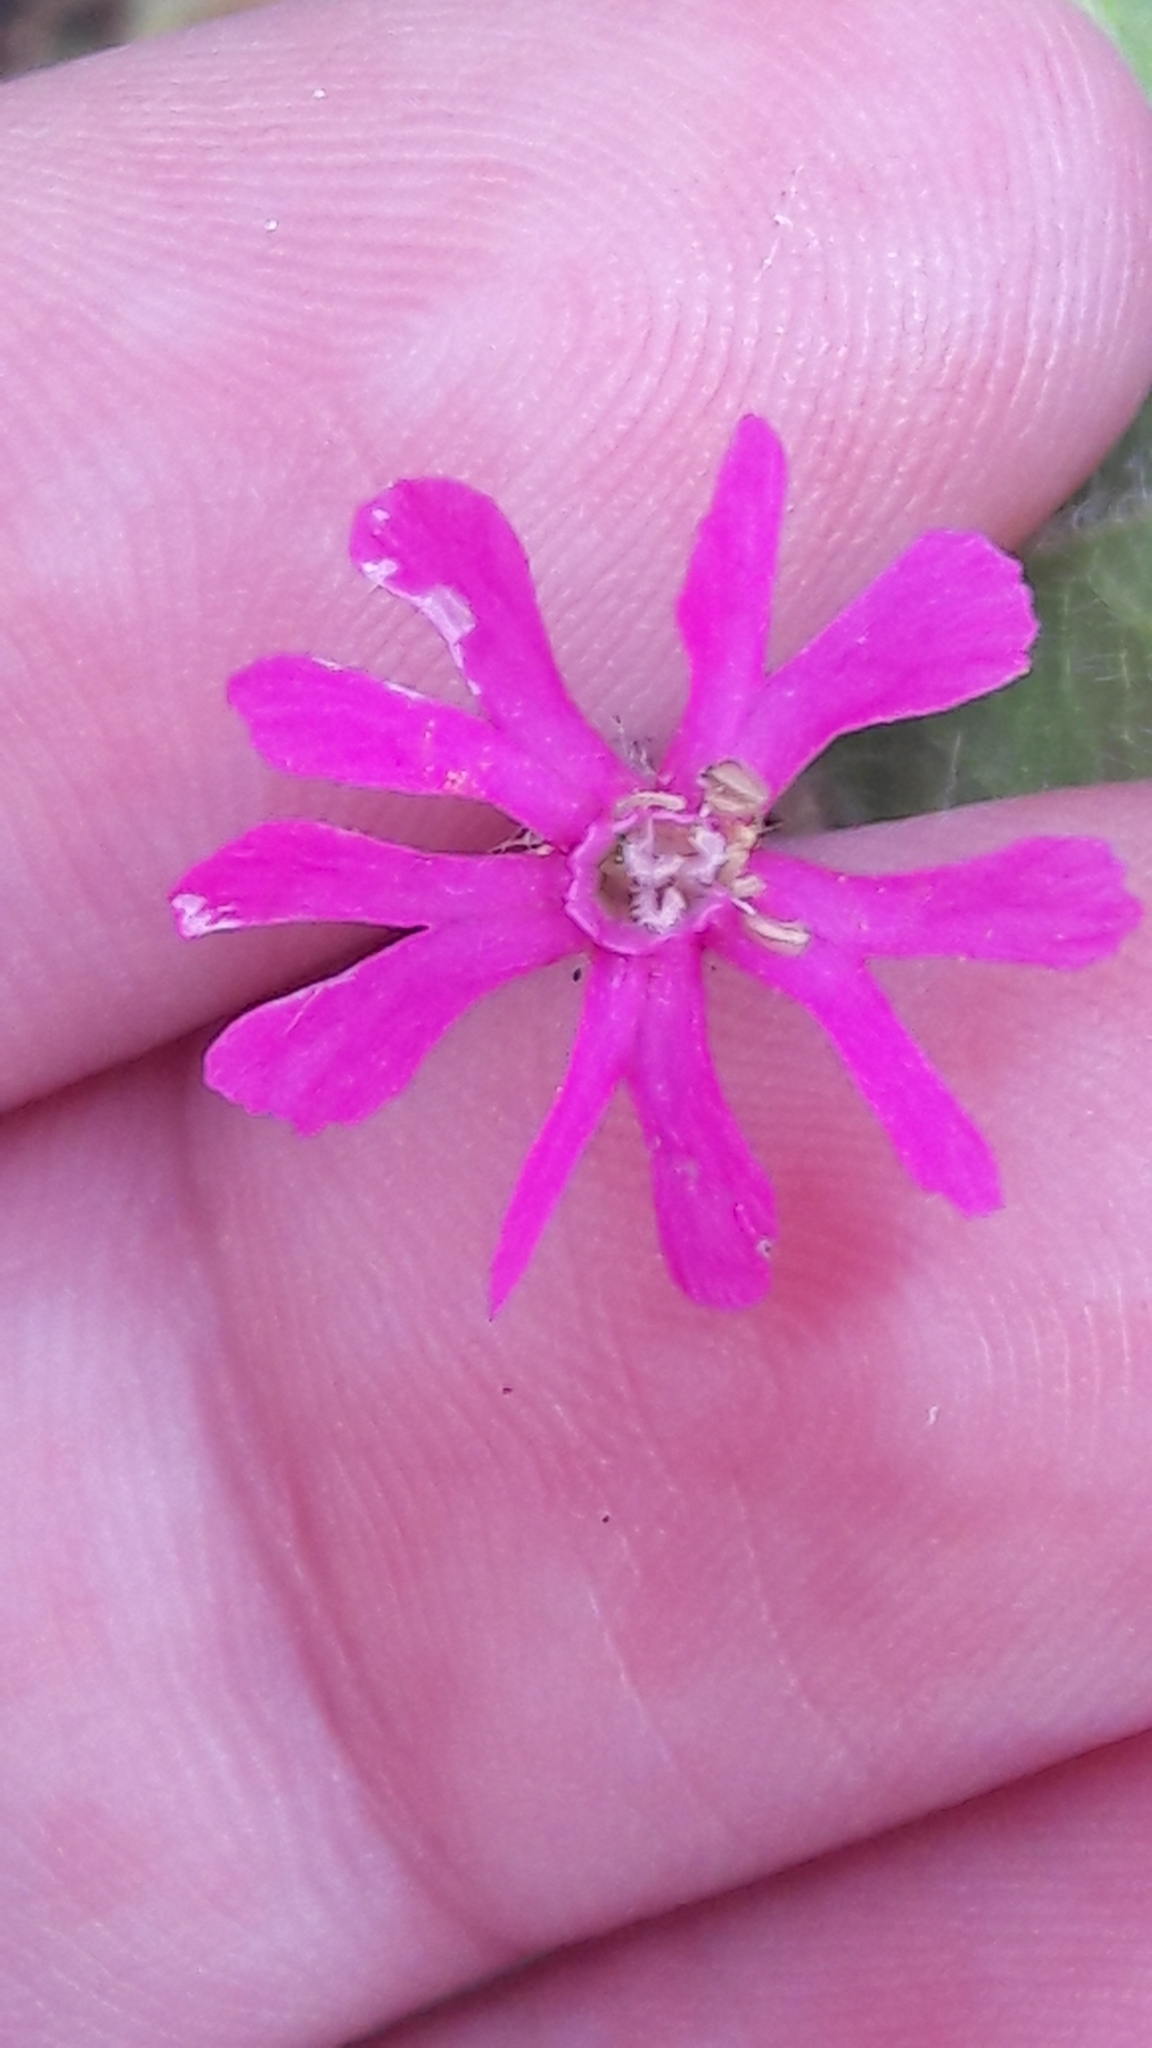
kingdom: Plantae
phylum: Tracheophyta
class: Magnoliopsida
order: Caryophyllales
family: Caryophyllaceae
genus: Silene
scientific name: Silene colorata
